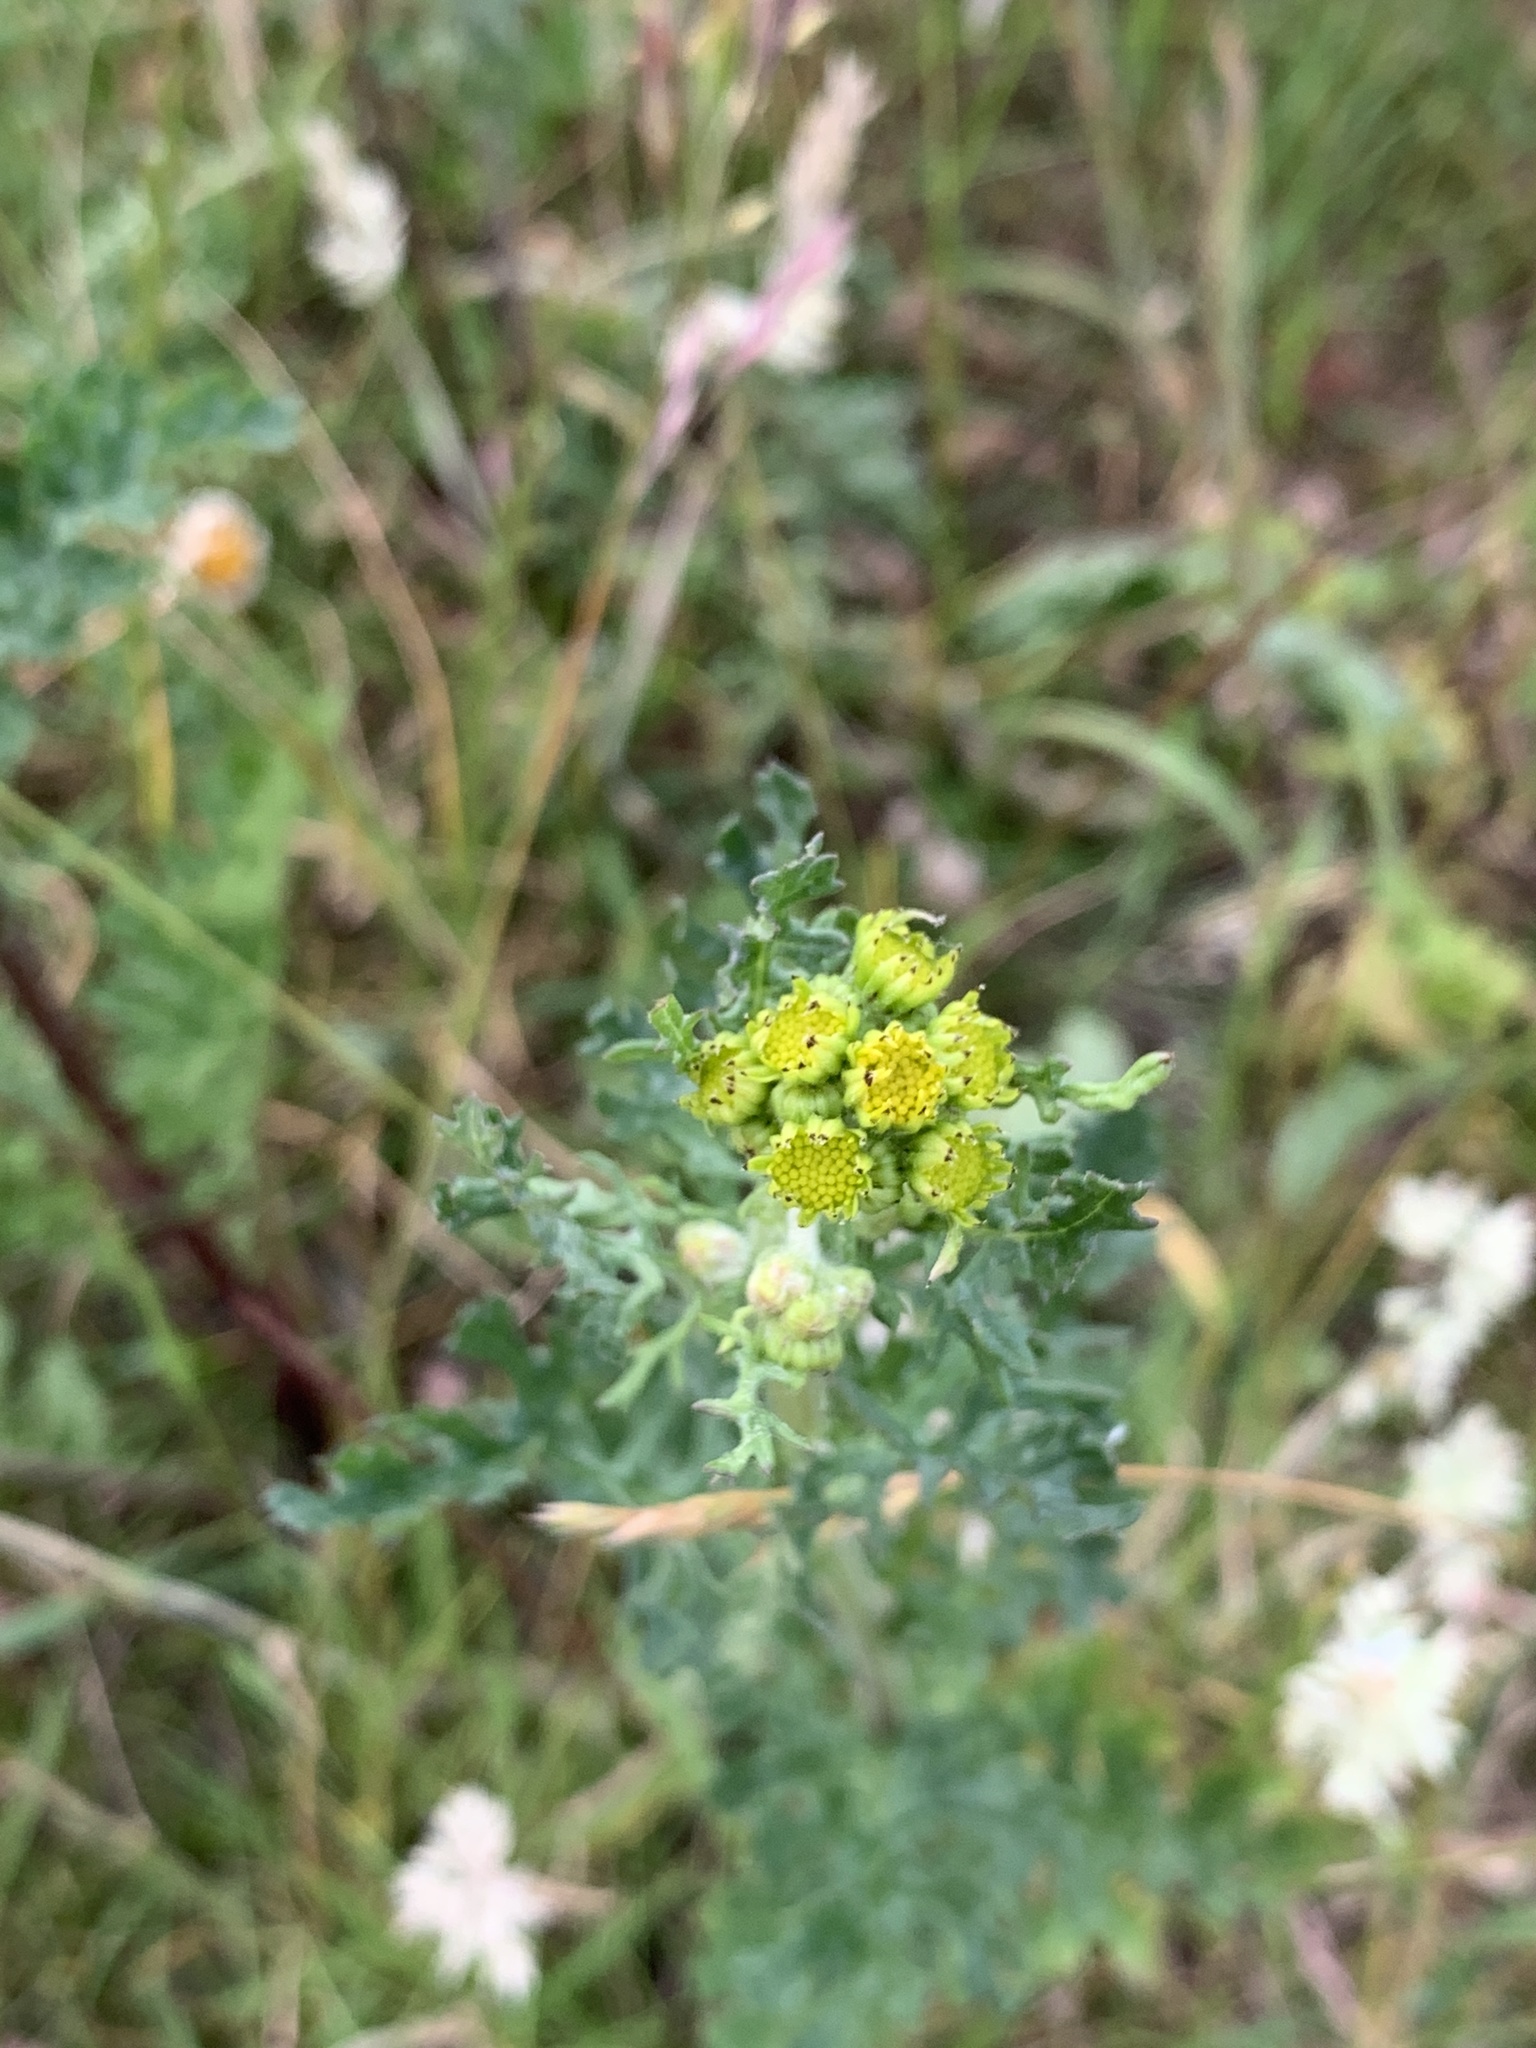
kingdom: Plantae
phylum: Tracheophyta
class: Magnoliopsida
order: Asterales
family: Asteraceae
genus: Jacobaea
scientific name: Jacobaea vulgaris
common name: Stinking willie
